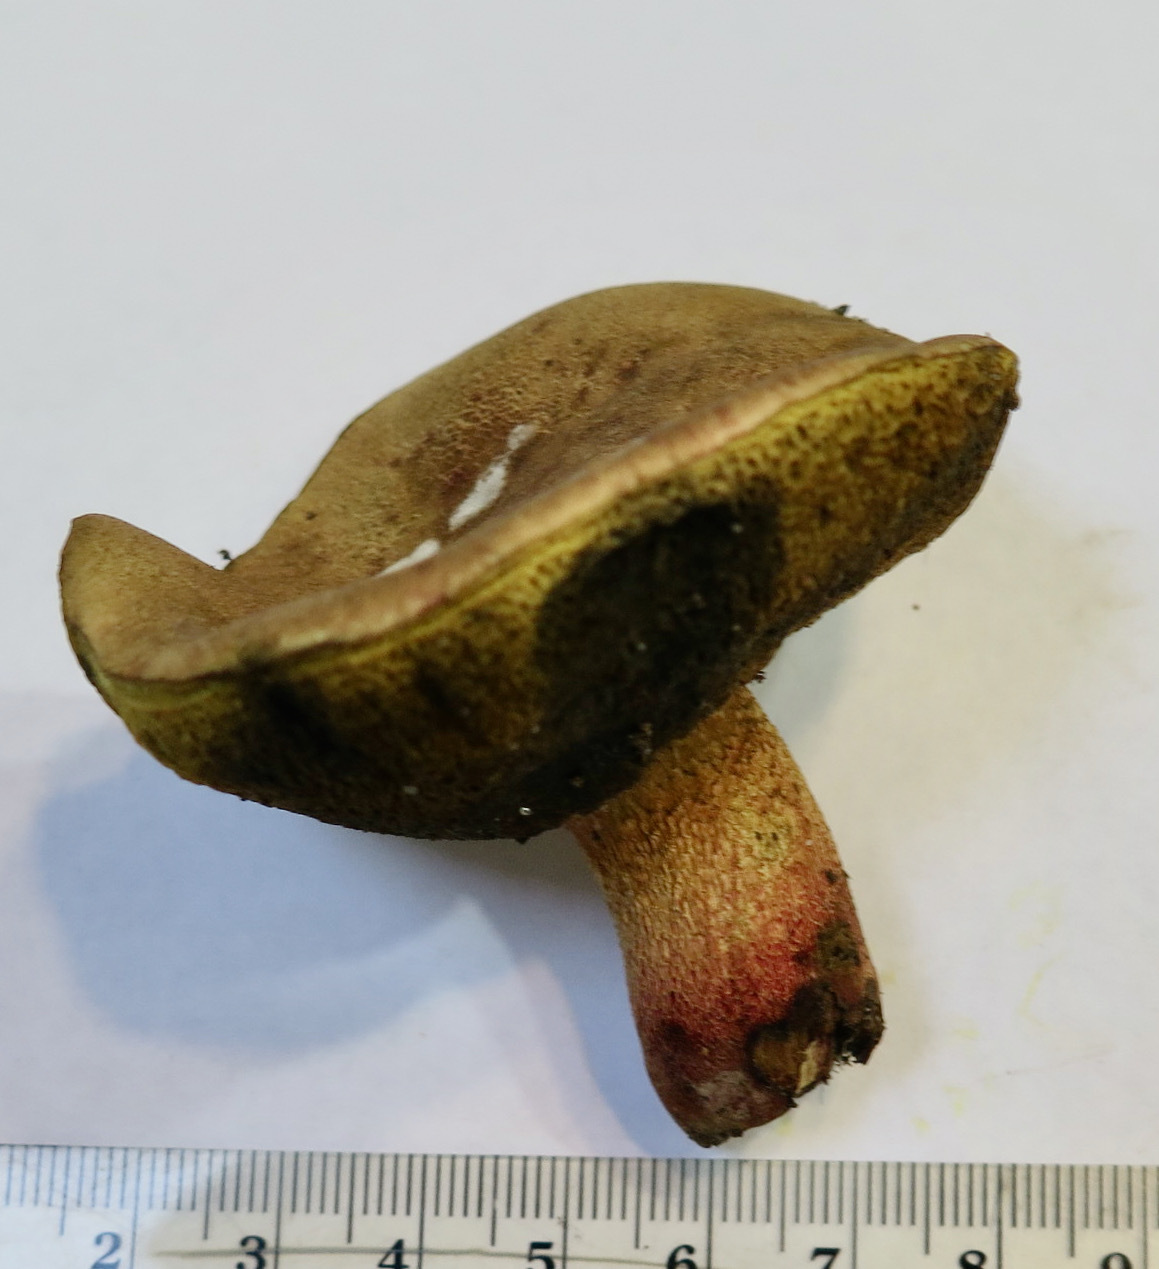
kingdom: Fungi
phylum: Basidiomycota
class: Agaricomycetes
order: Boletales
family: Boletaceae
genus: Boletus
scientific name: Boletus billieae
